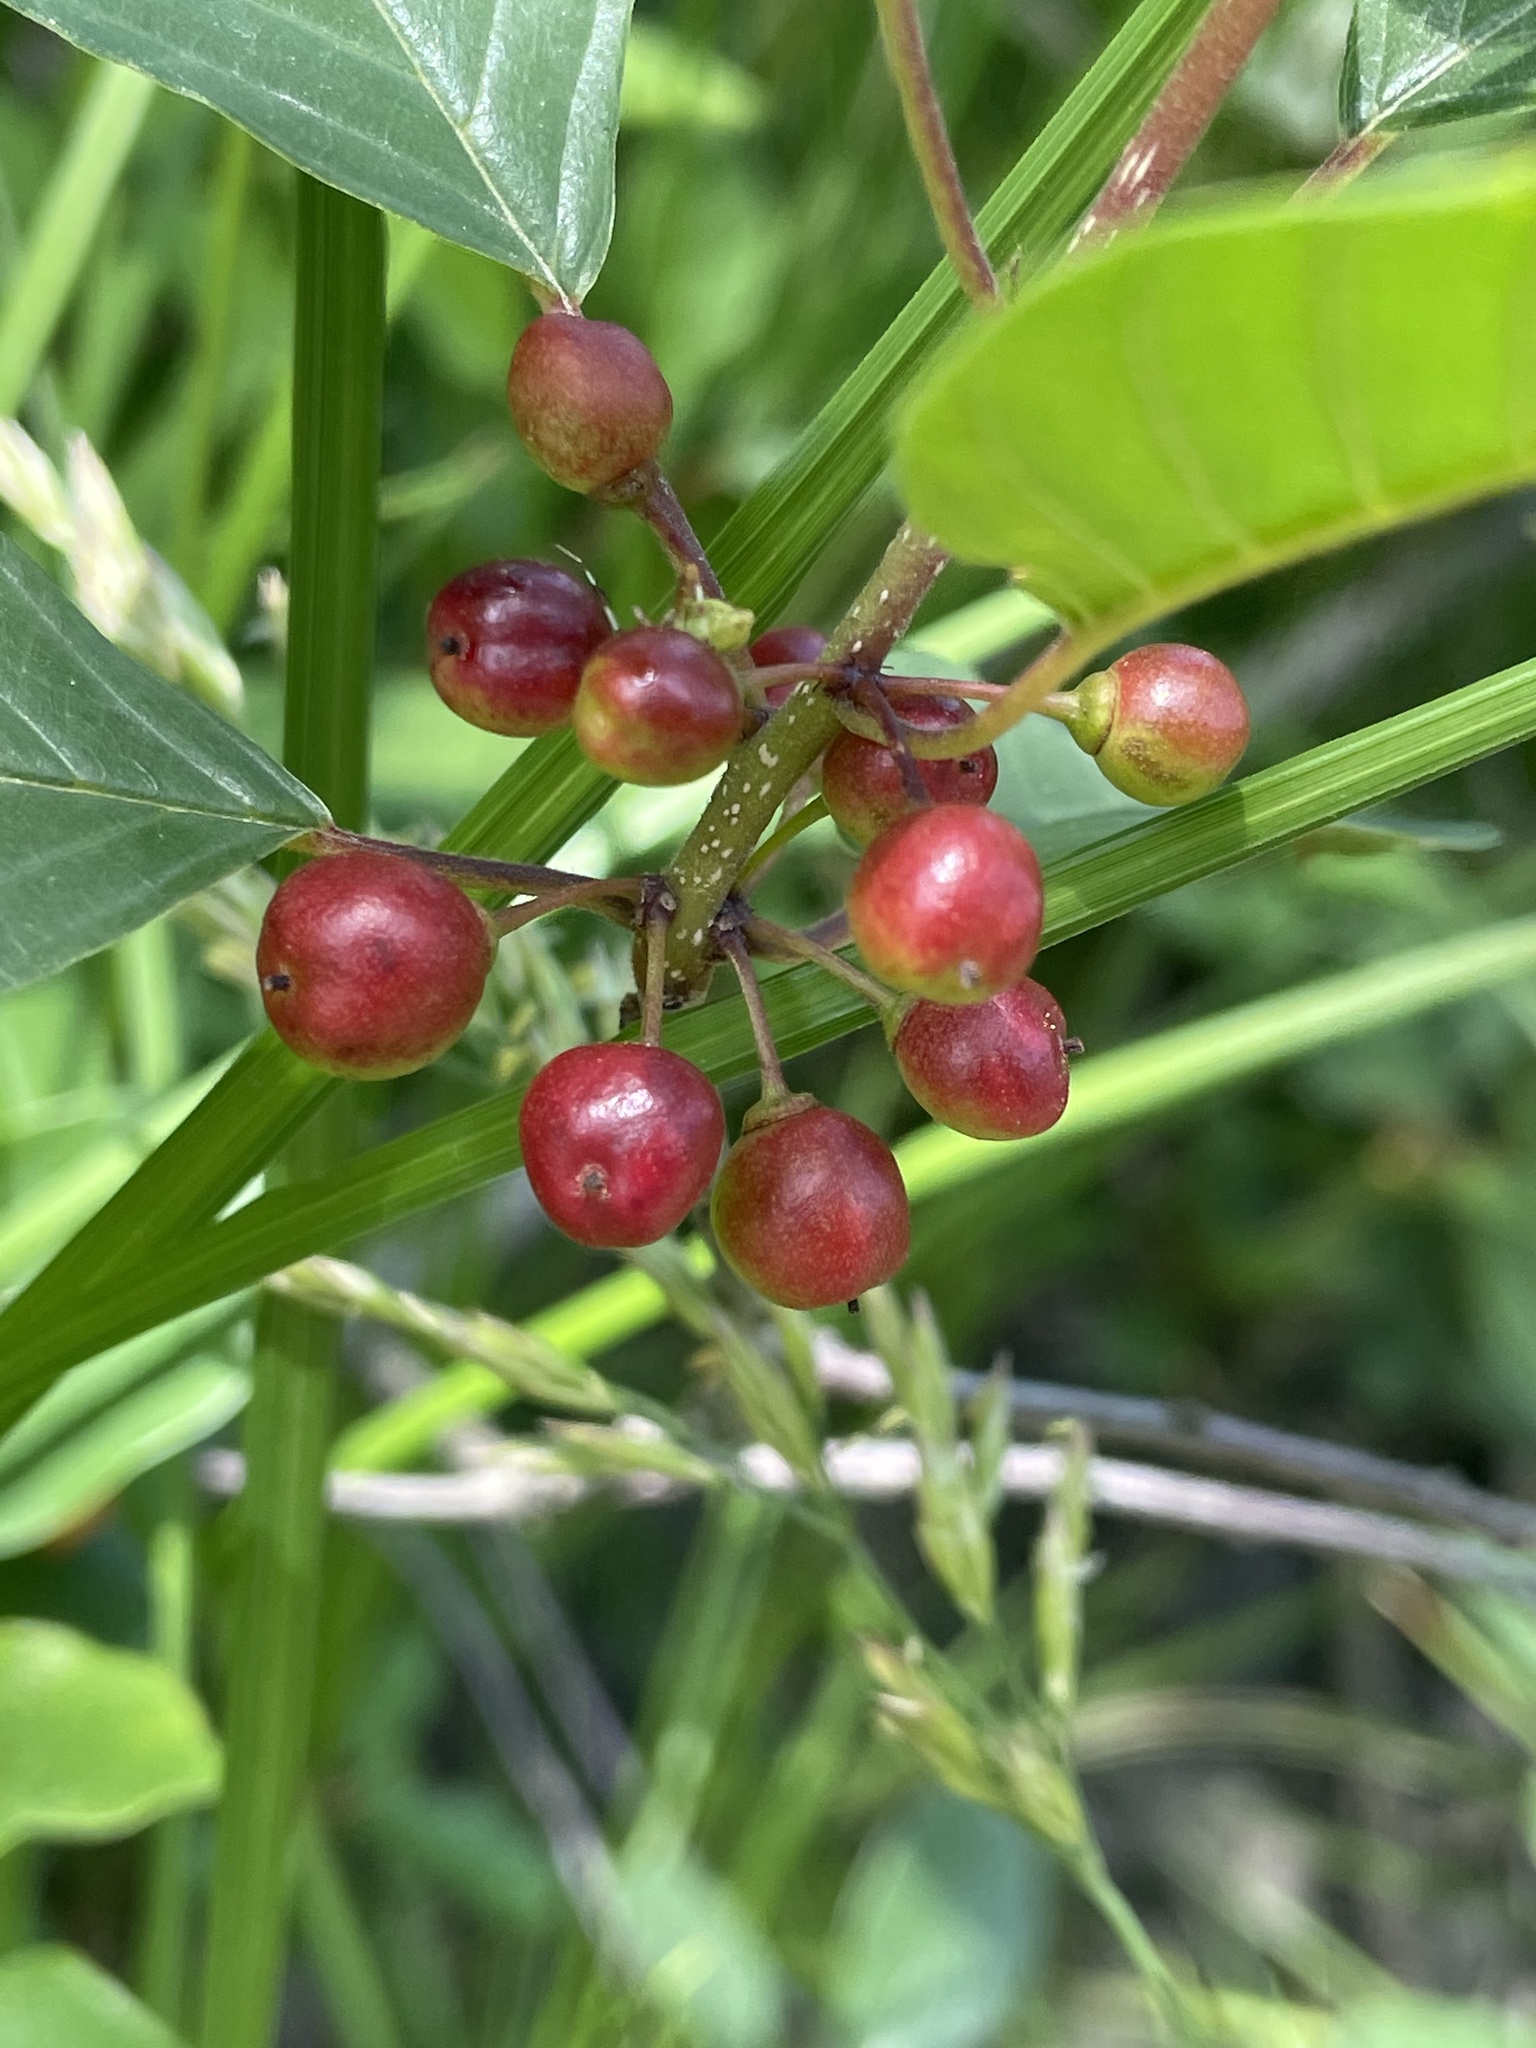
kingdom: Plantae
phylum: Tracheophyta
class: Magnoliopsida
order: Rosales
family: Rhamnaceae
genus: Frangula
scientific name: Frangula alnus
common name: Alder buckthorn
